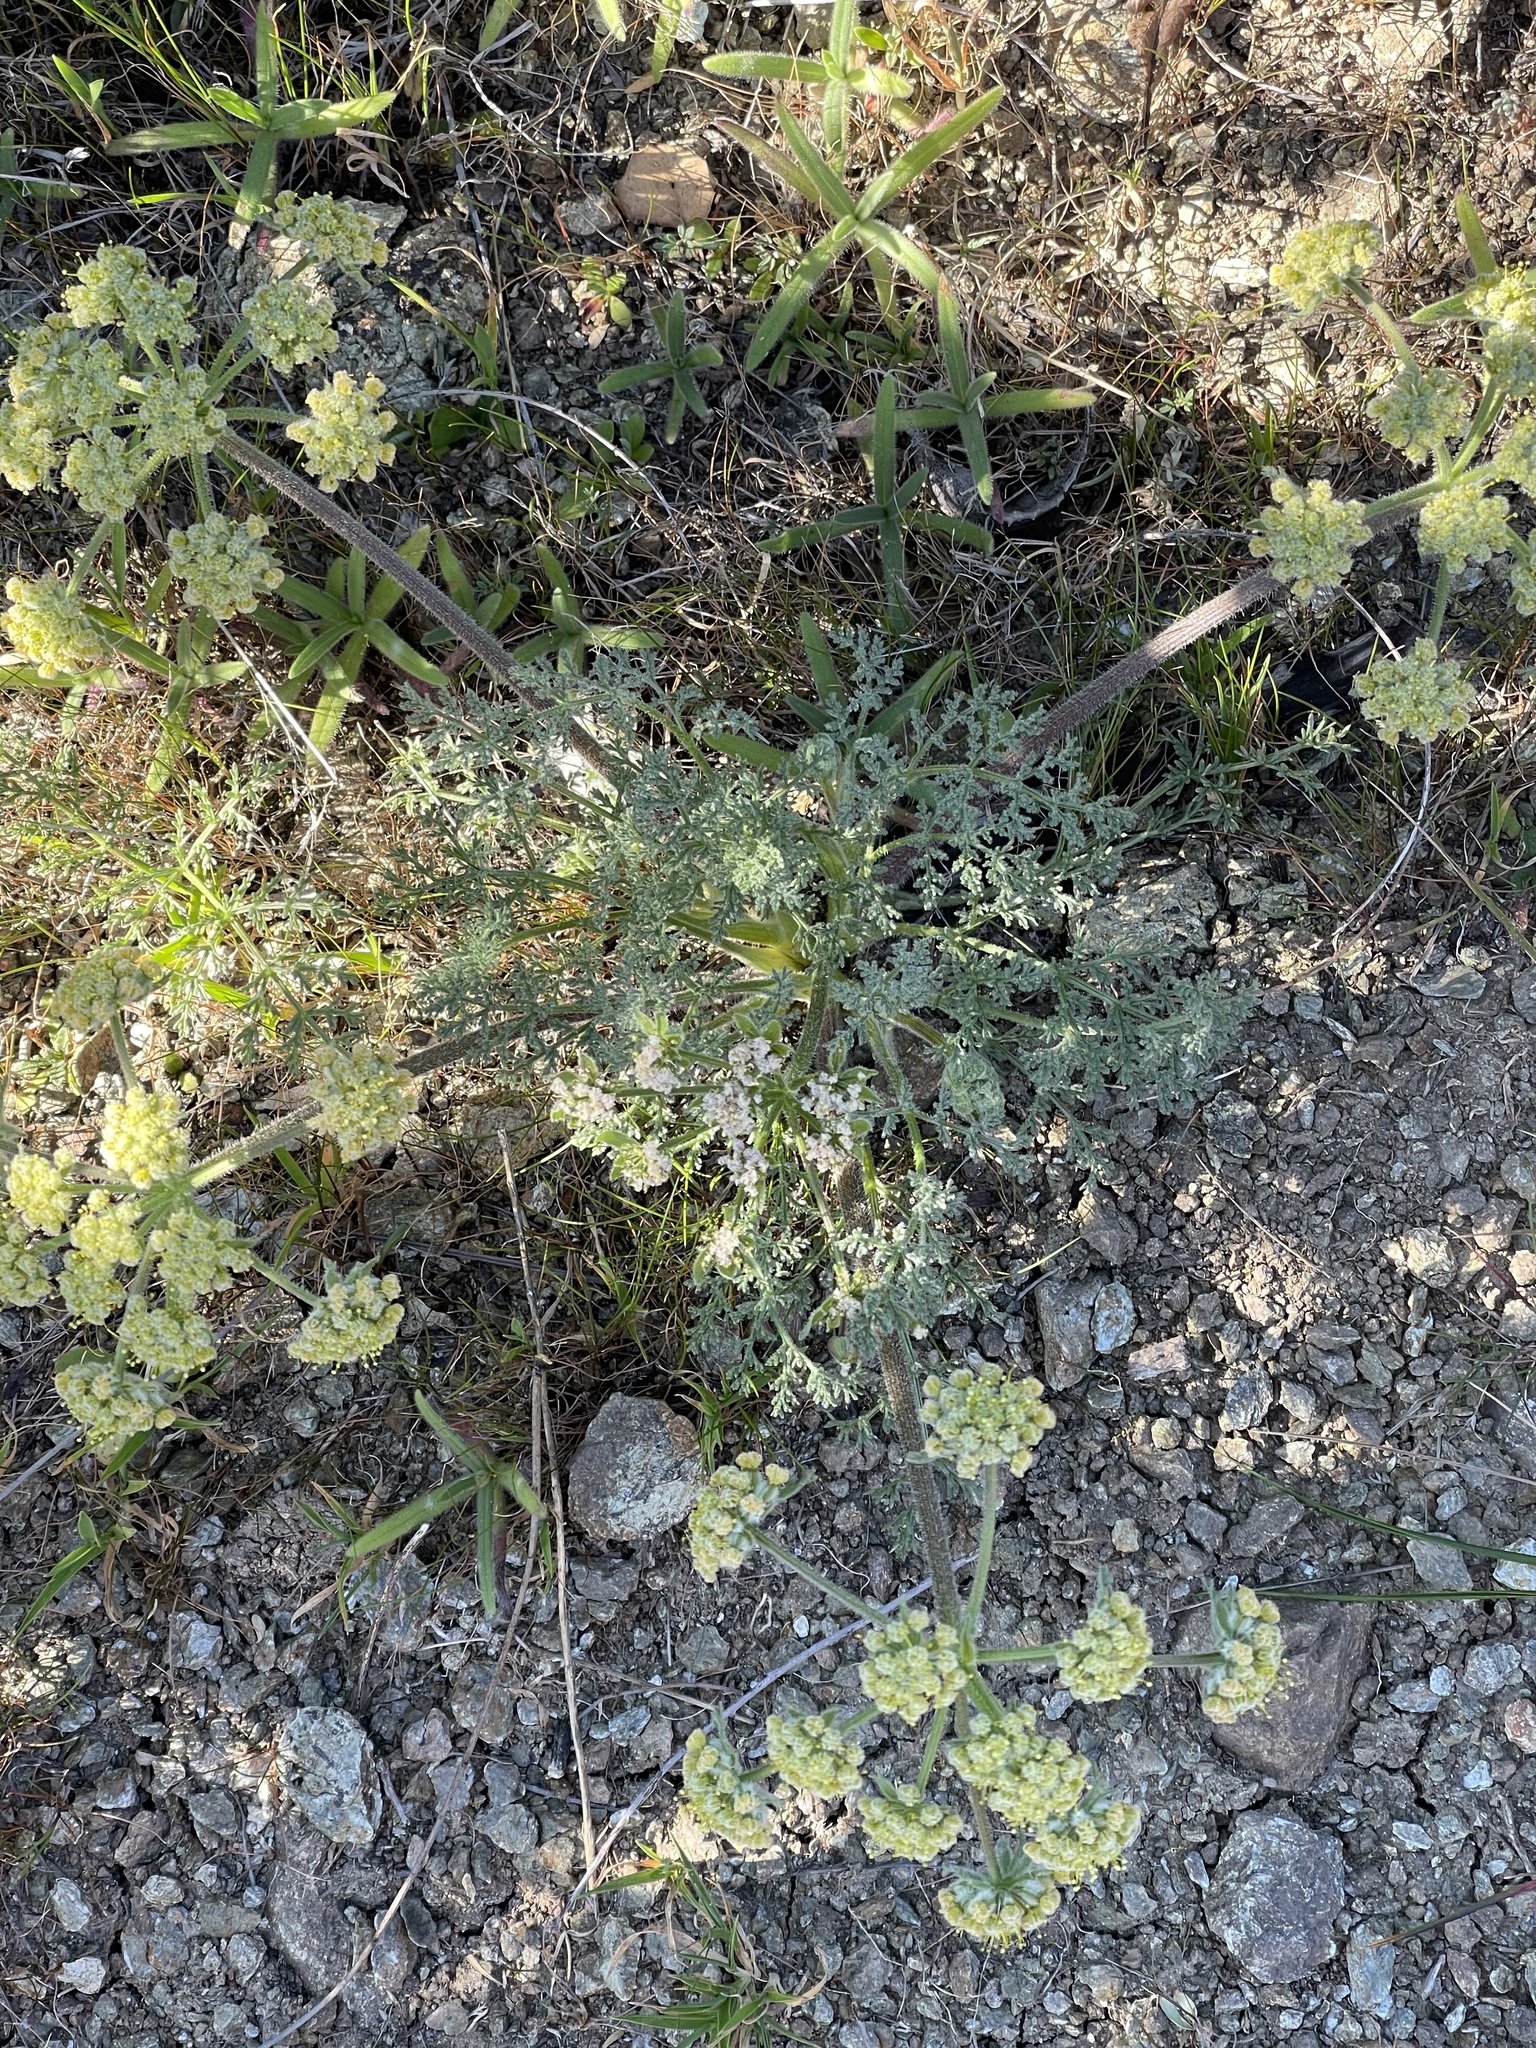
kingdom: Plantae
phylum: Tracheophyta
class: Magnoliopsida
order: Apiales
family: Apiaceae
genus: Lomatium
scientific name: Lomatium dasycarpum
